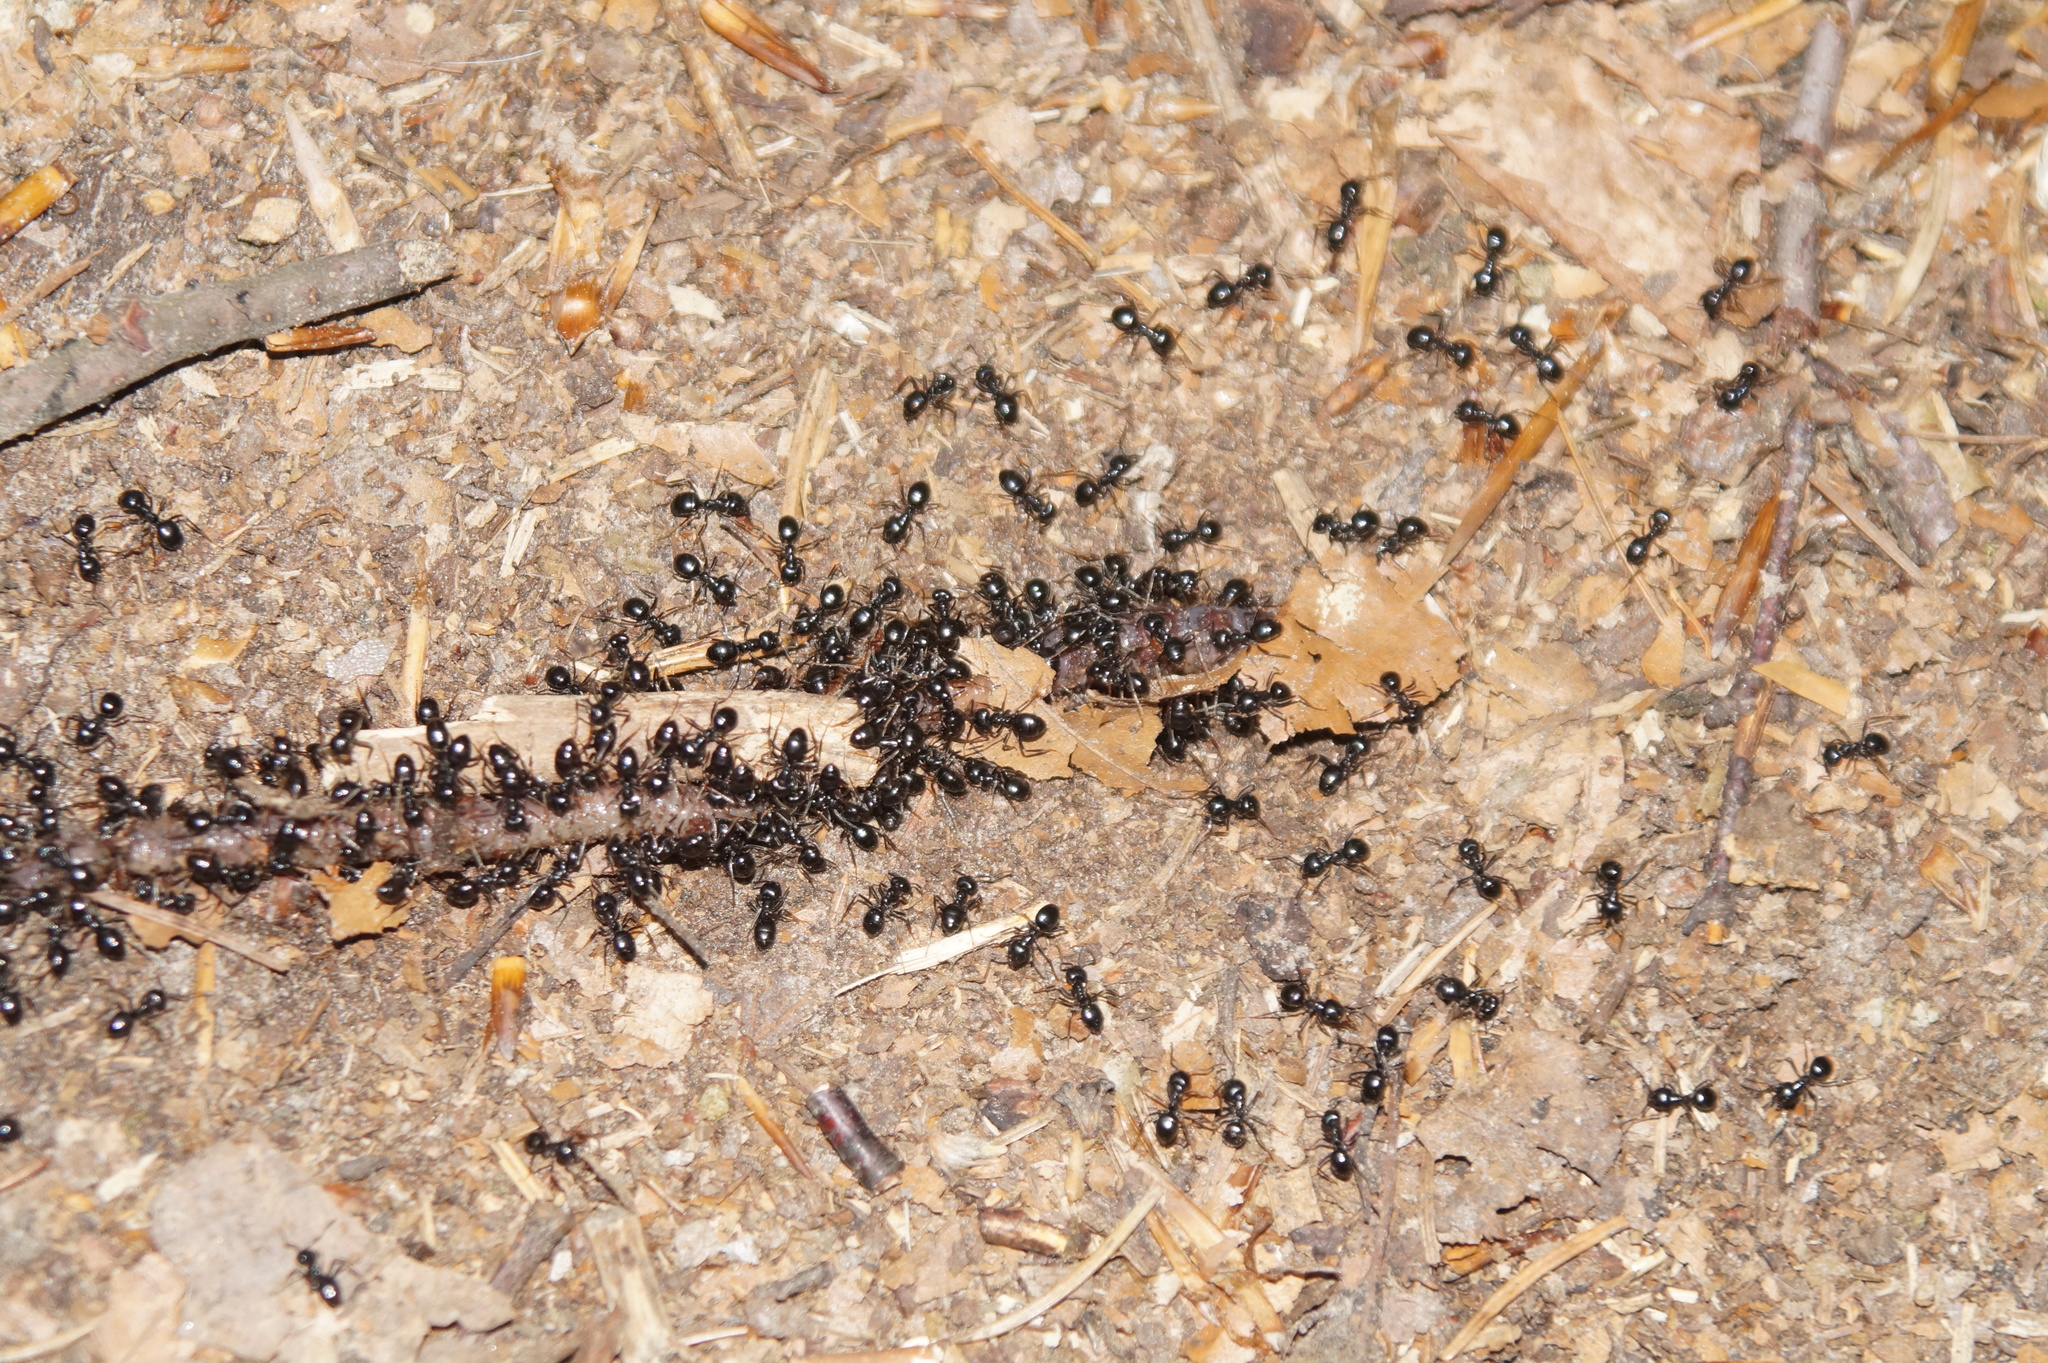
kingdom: Animalia
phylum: Arthropoda
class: Insecta
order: Hymenoptera
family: Formicidae
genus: Lasius
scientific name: Lasius fuliginosus
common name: Jet ant
